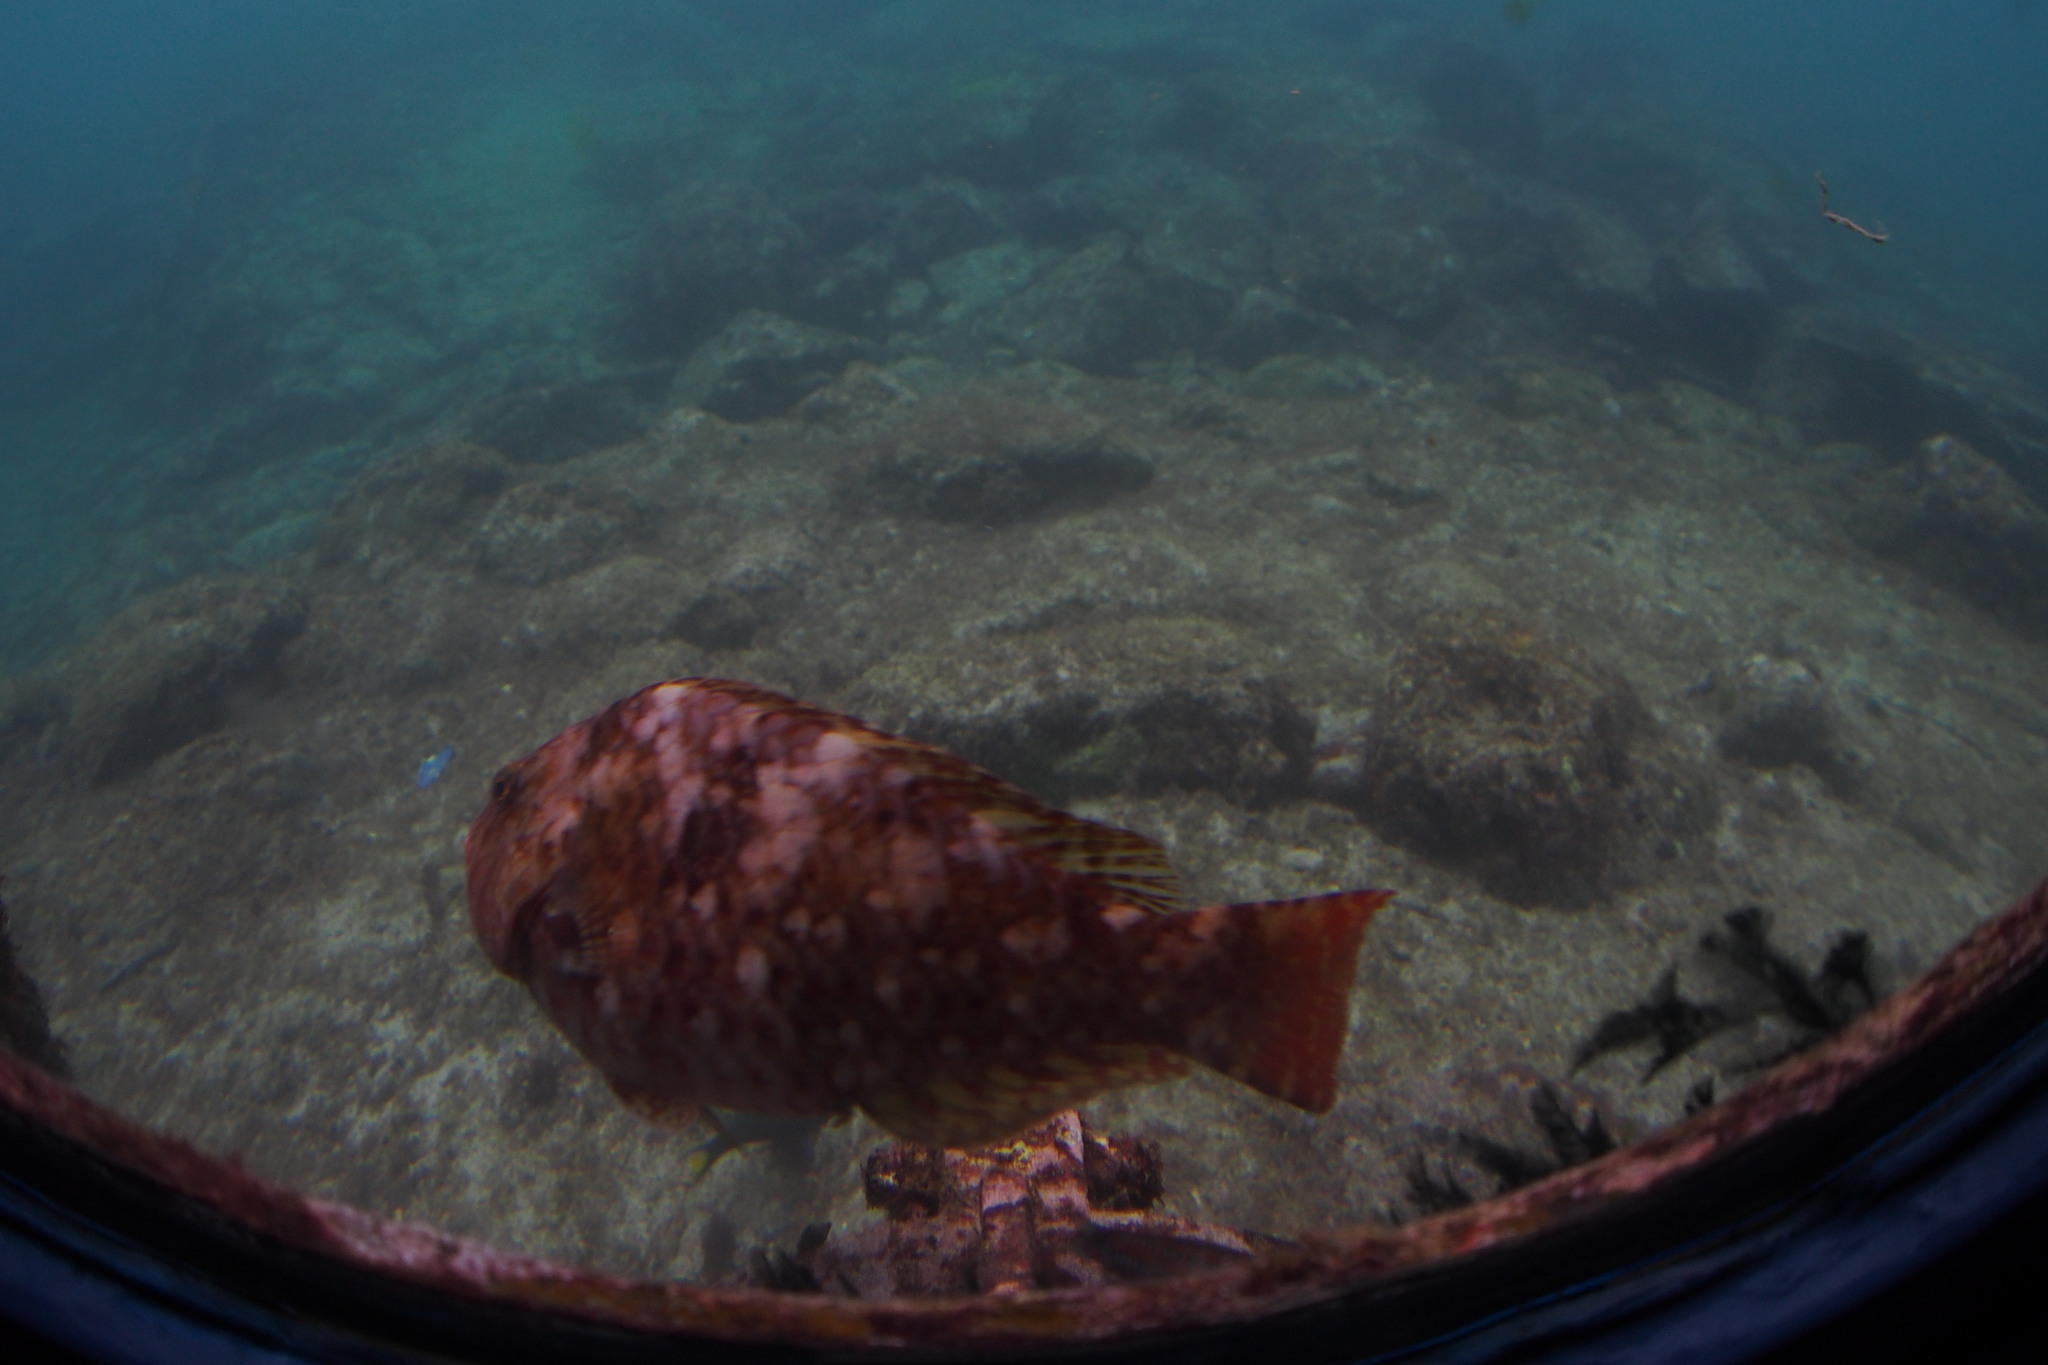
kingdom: Animalia
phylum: Chordata
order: Perciformes
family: Scaridae
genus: Calotomus
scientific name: Calotomus japonicus
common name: Japanese parrotfish
